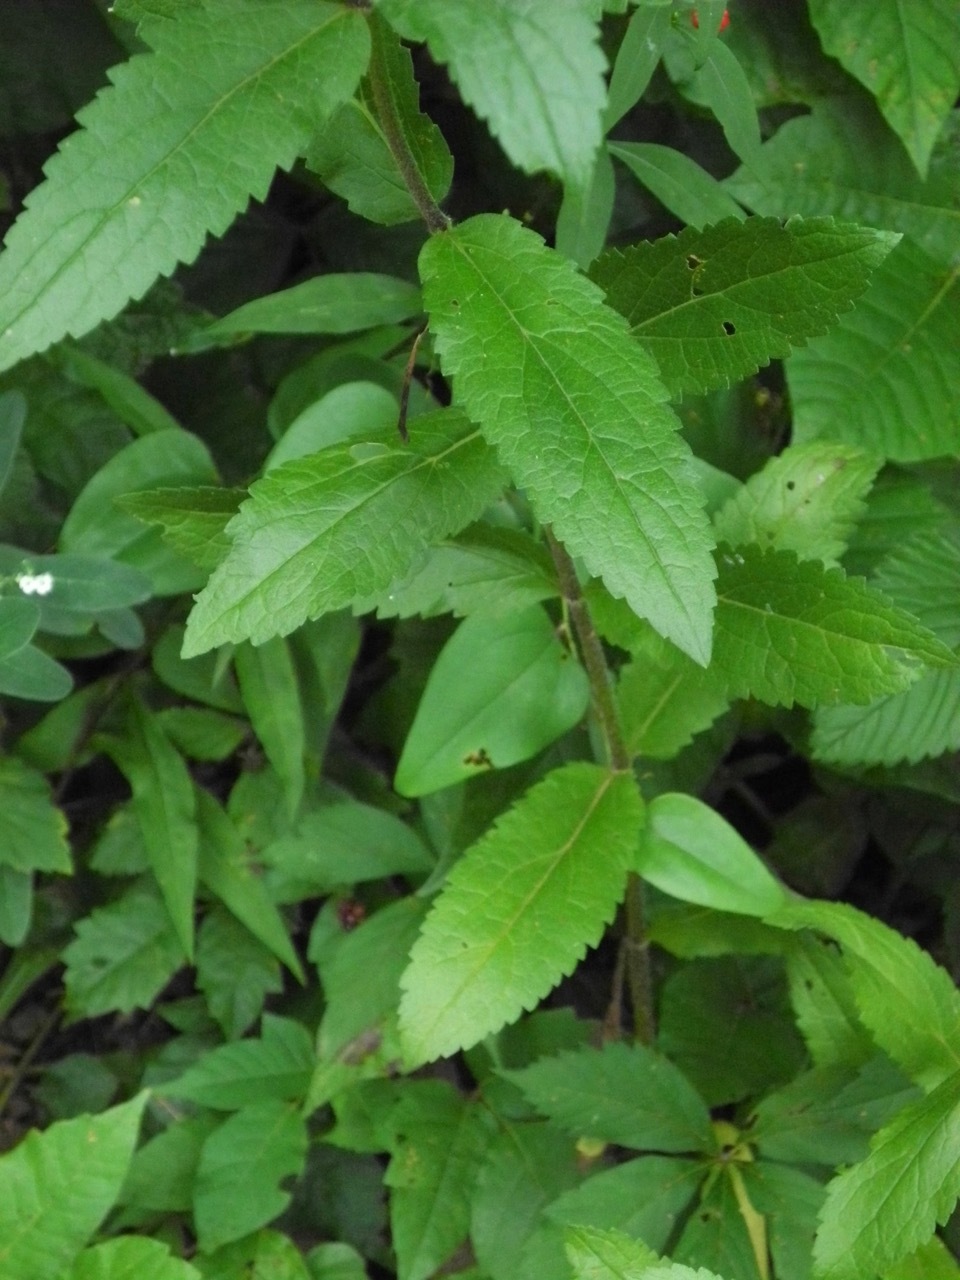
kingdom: Plantae
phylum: Tracheophyta
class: Magnoliopsida
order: Asterales
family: Asteraceae
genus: Eupatorium
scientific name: Eupatorium sessilifolium
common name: Upland boneset
